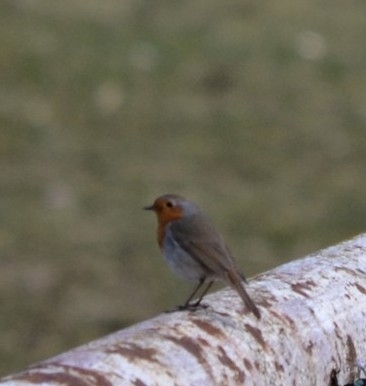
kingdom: Animalia
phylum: Chordata
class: Aves
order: Passeriformes
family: Muscicapidae
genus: Erithacus
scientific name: Erithacus rubecula
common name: European robin
